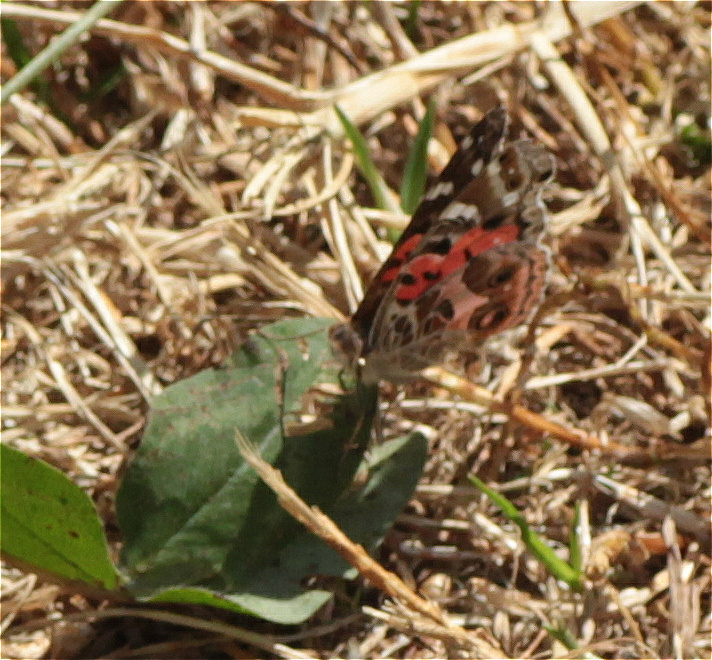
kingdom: Animalia
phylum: Arthropoda
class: Insecta
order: Lepidoptera
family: Nymphalidae
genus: Vanessa
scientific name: Vanessa braziliensis
